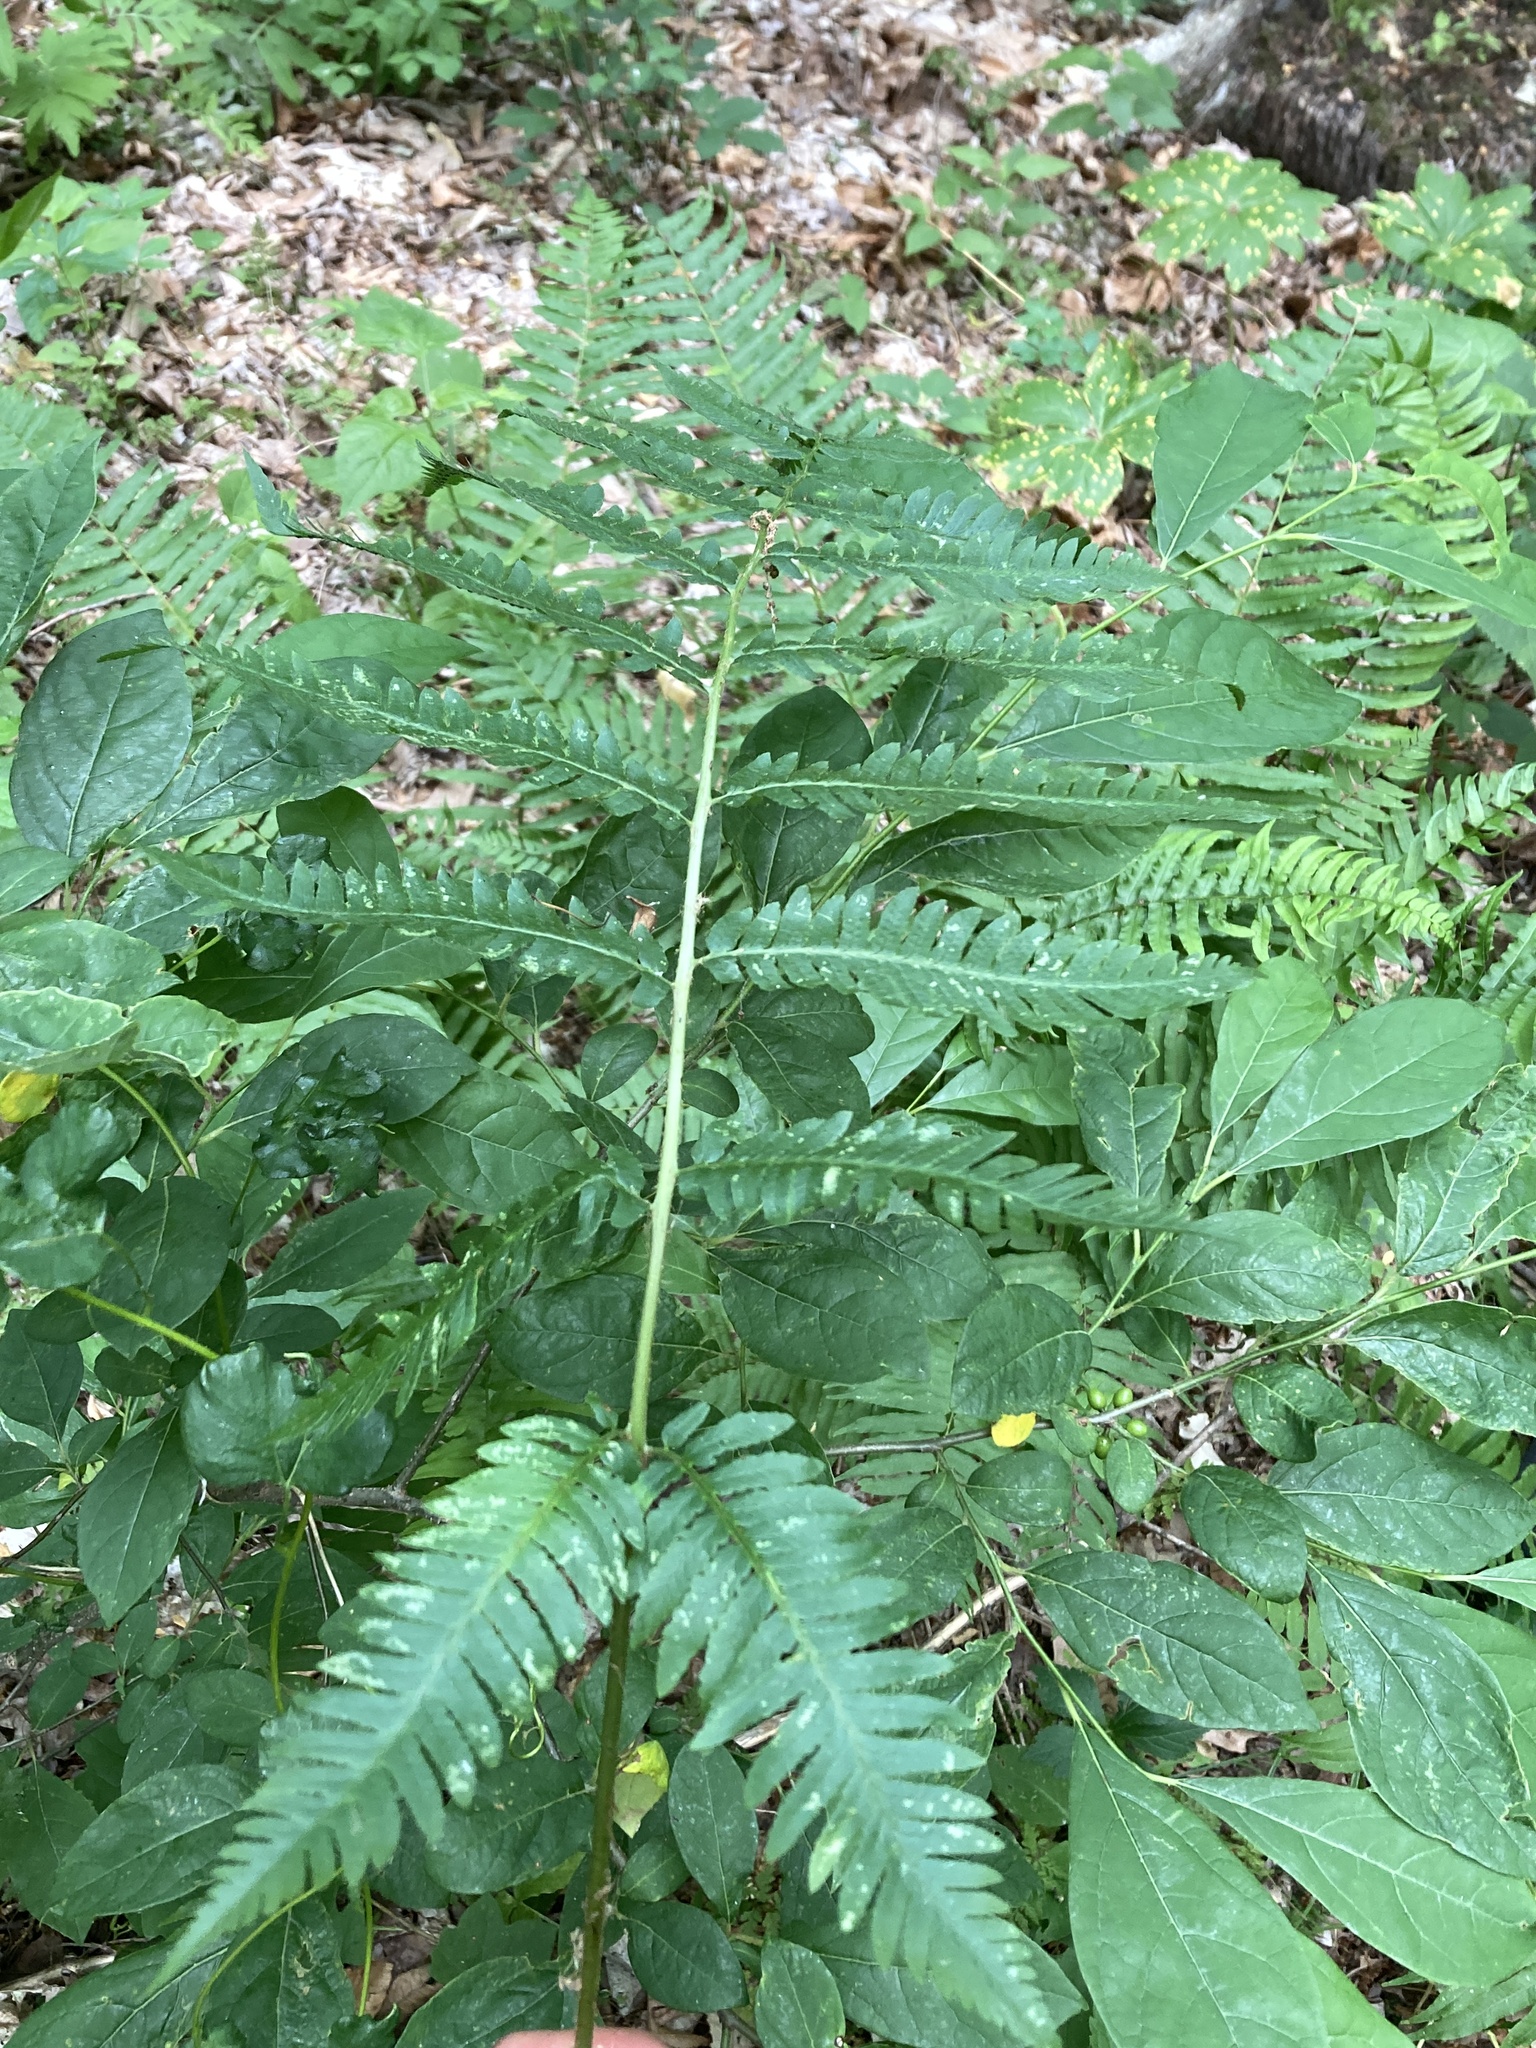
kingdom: Plantae
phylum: Tracheophyta
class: Polypodiopsida
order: Polypodiales
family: Dryopteridaceae
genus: Dryopteris
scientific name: Dryopteris goldieana
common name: Goldie's fern
